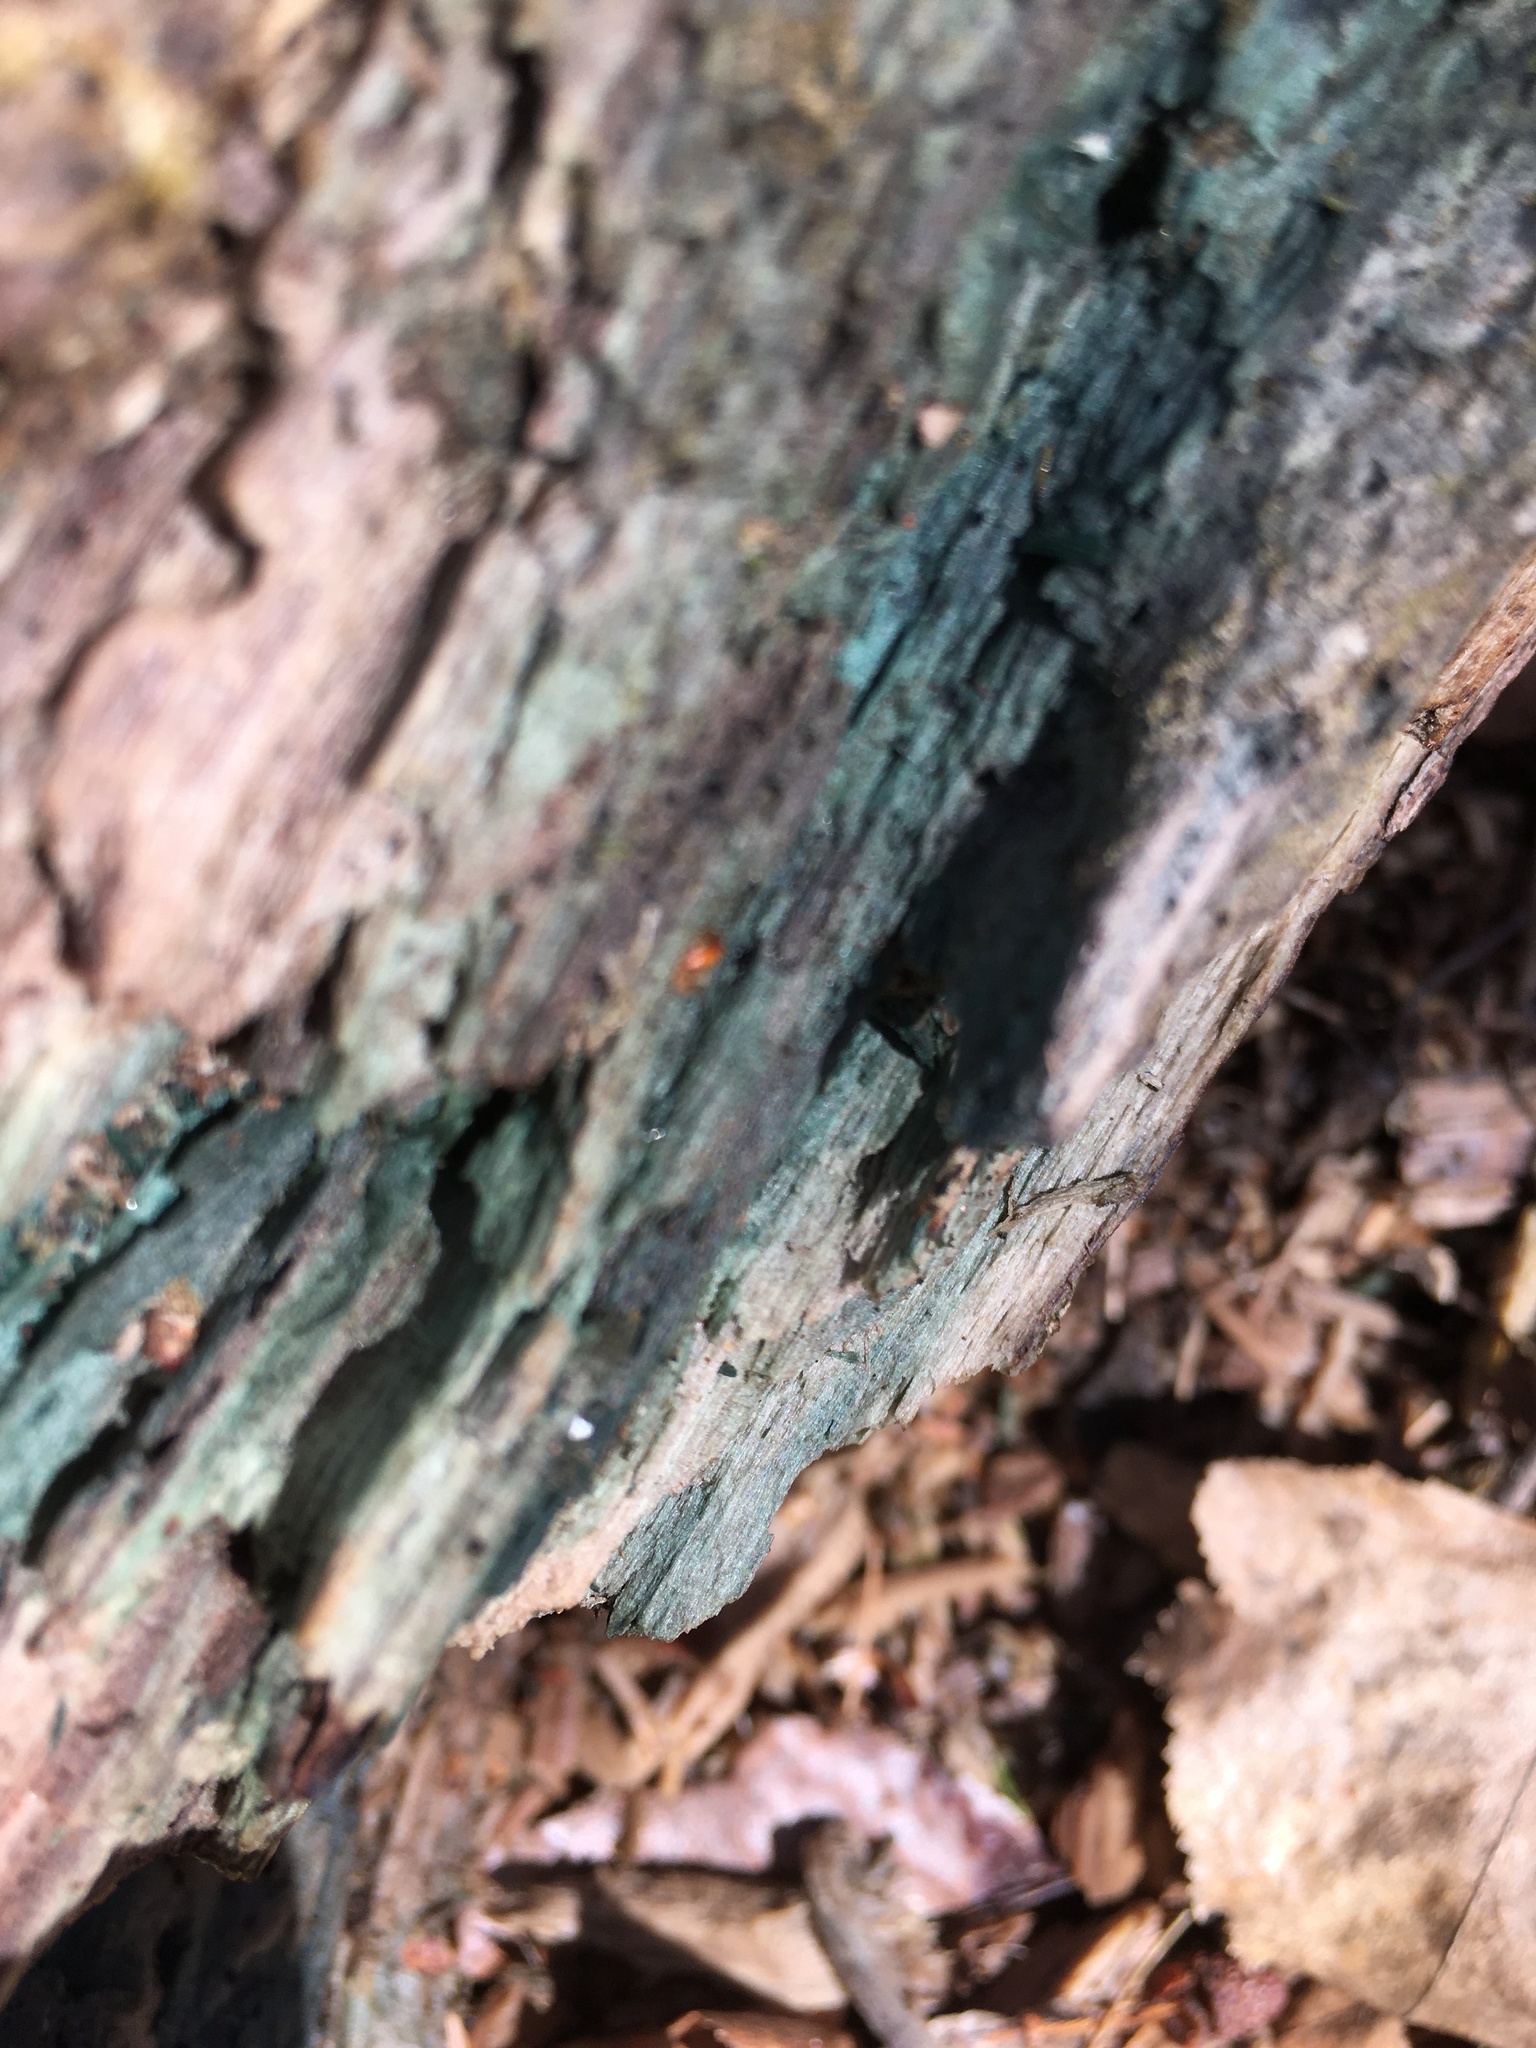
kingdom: Fungi
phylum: Ascomycota
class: Leotiomycetes
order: Helotiales
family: Chlorociboriaceae
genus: Chlorociboria
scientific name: Chlorociboria
